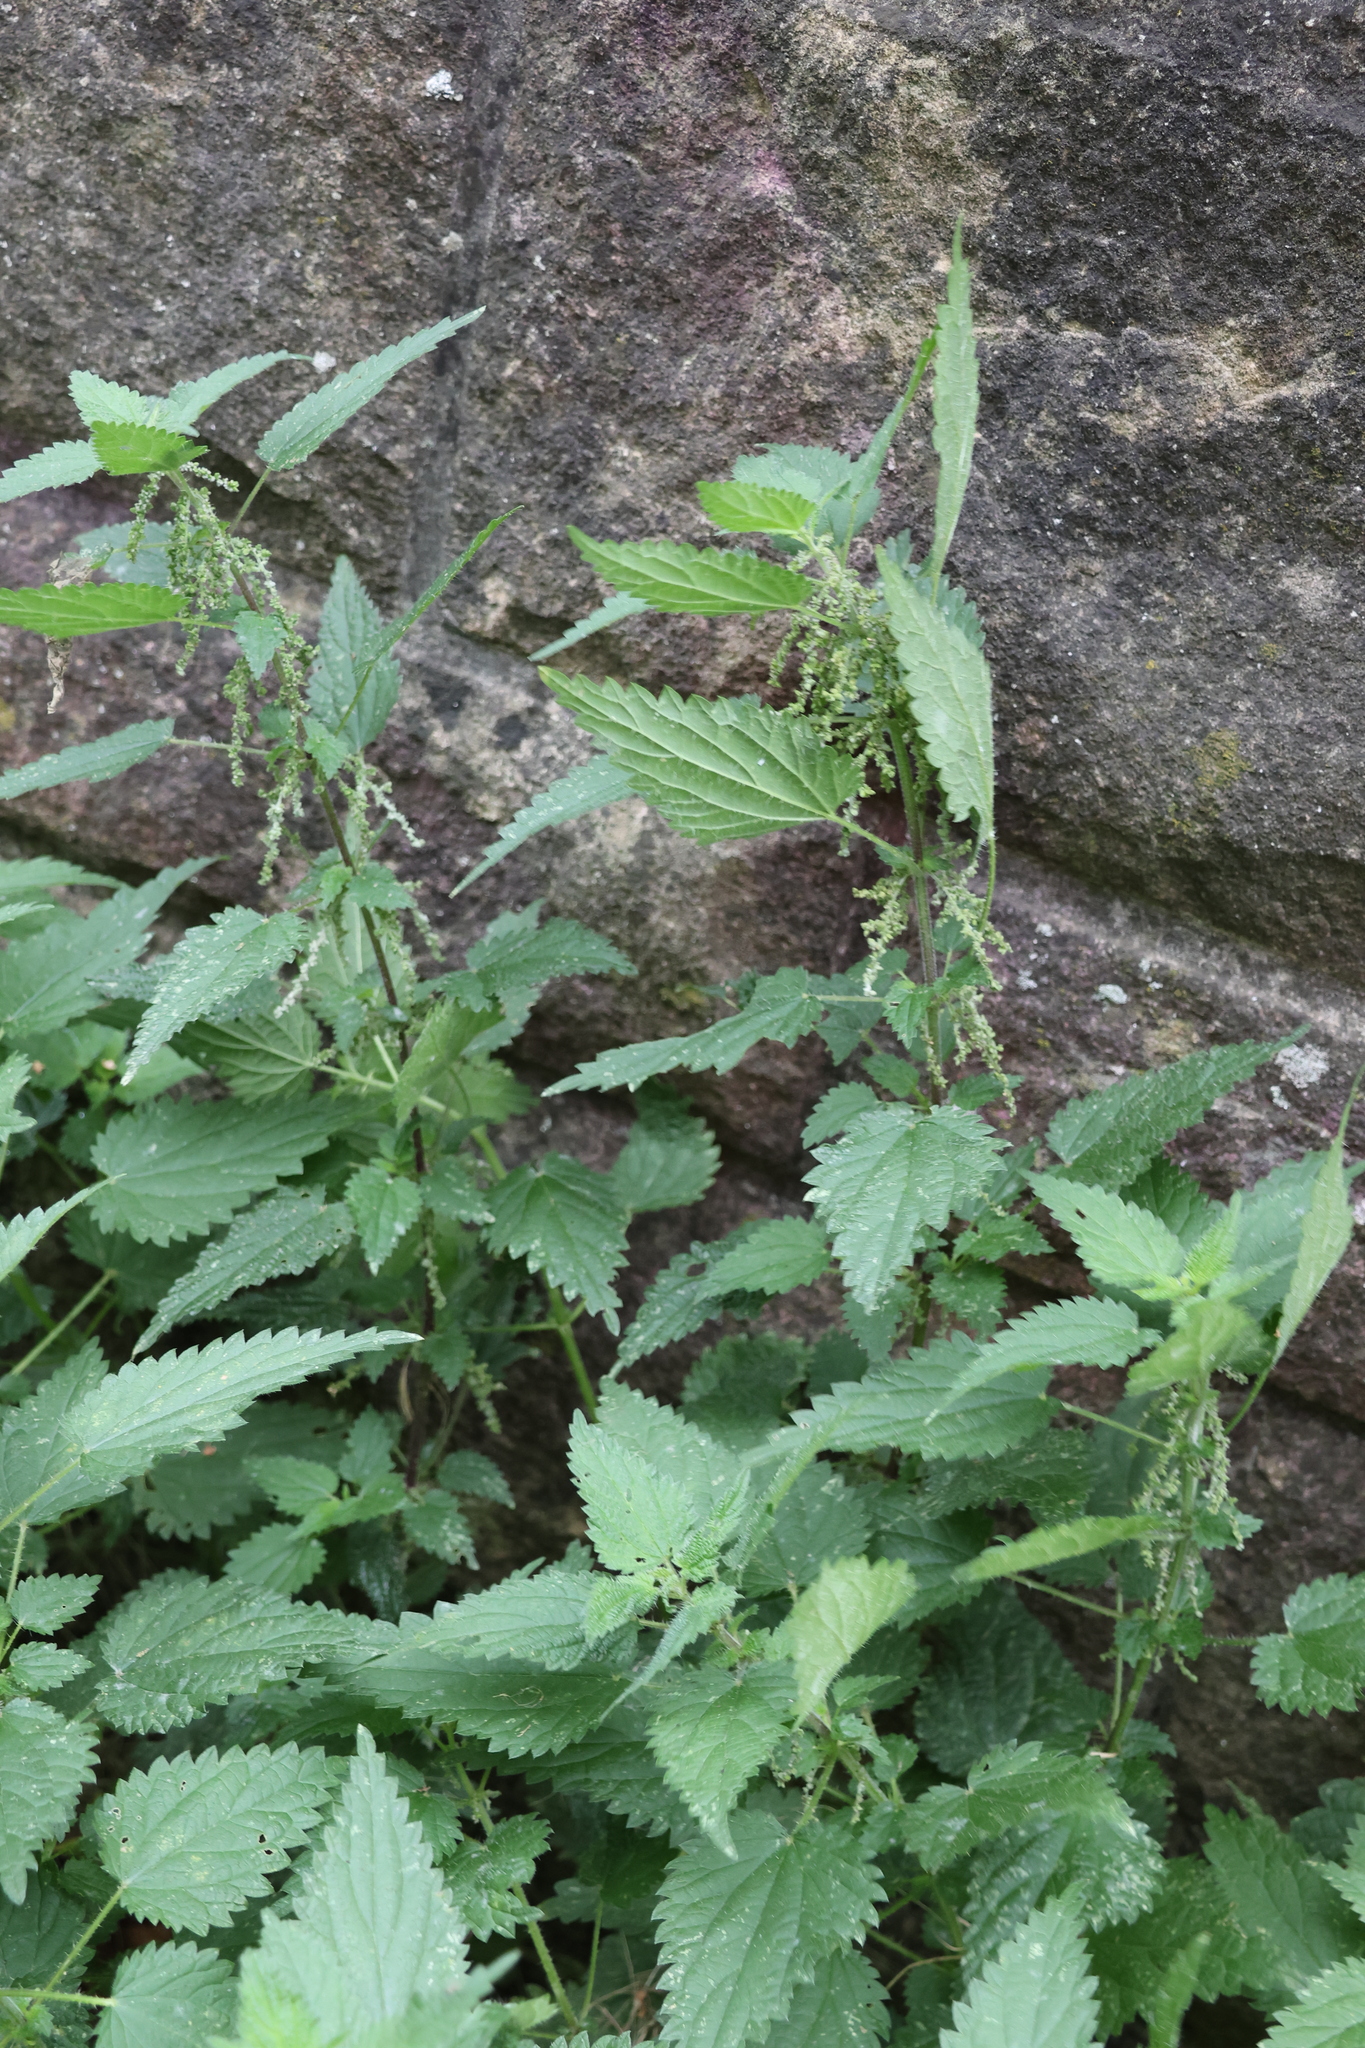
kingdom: Plantae
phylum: Tracheophyta
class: Magnoliopsida
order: Rosales
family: Urticaceae
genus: Urtica
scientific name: Urtica dioica
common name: Common nettle
